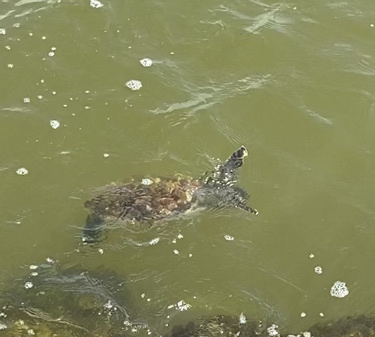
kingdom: Animalia
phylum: Chordata
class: Testudines
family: Cheloniidae
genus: Chelonia
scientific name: Chelonia mydas
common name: Green turtle
